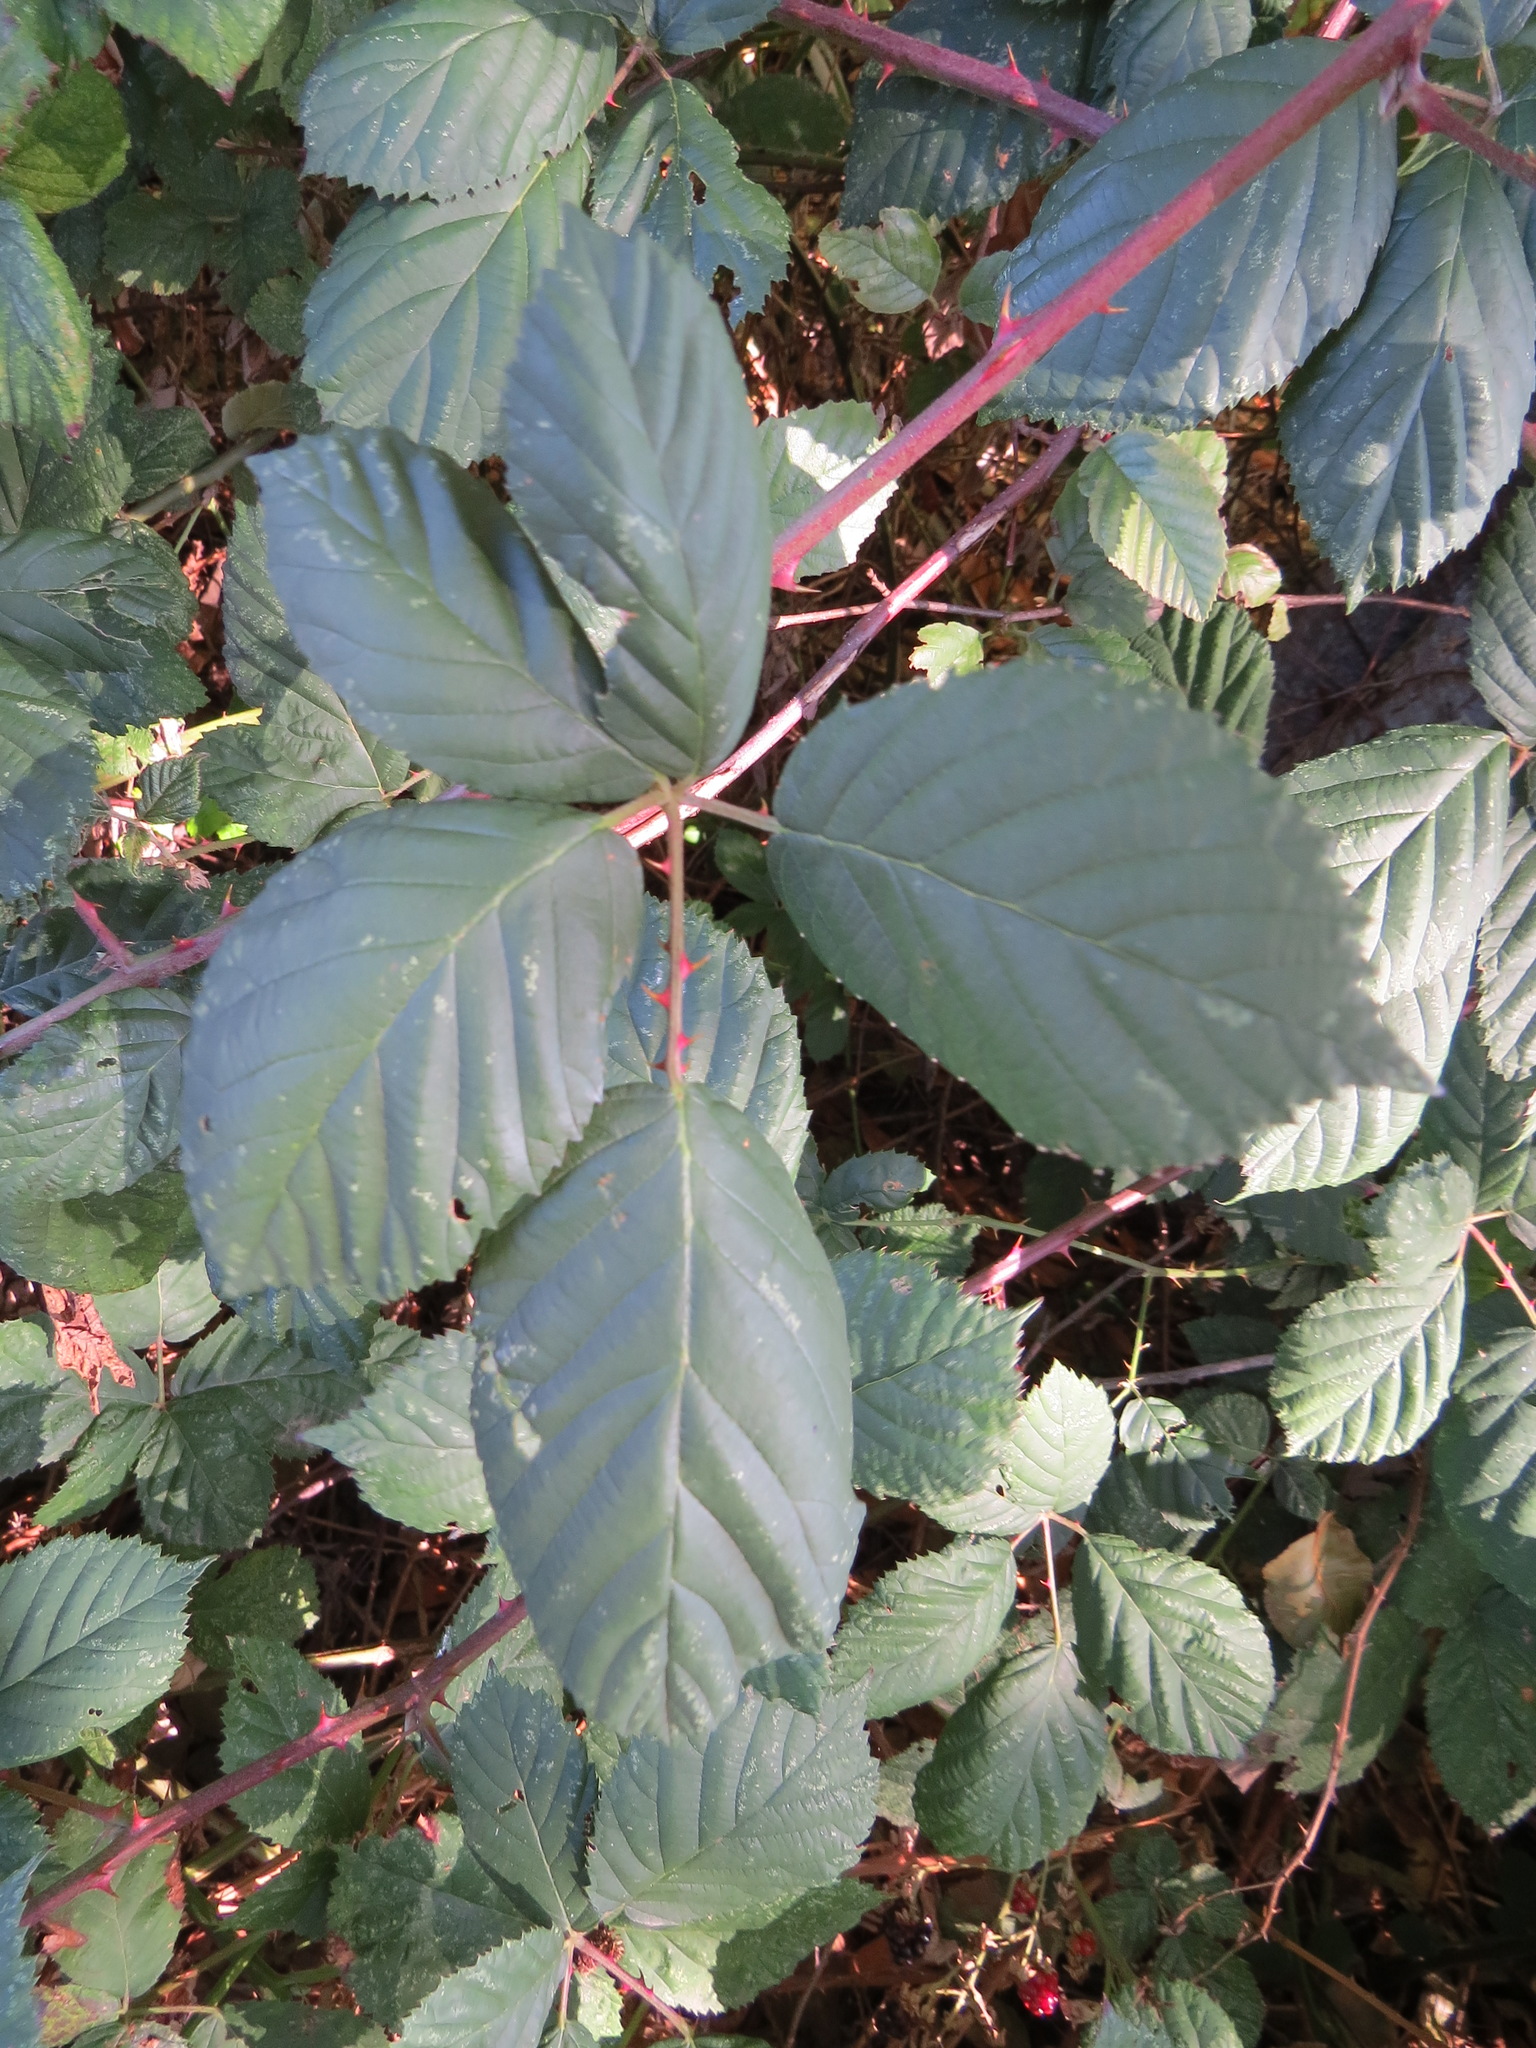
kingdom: Plantae
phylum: Tracheophyta
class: Magnoliopsida
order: Rosales
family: Rosaceae
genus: Rubus
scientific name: Rubus armeniacus
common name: Himalayan blackberry
